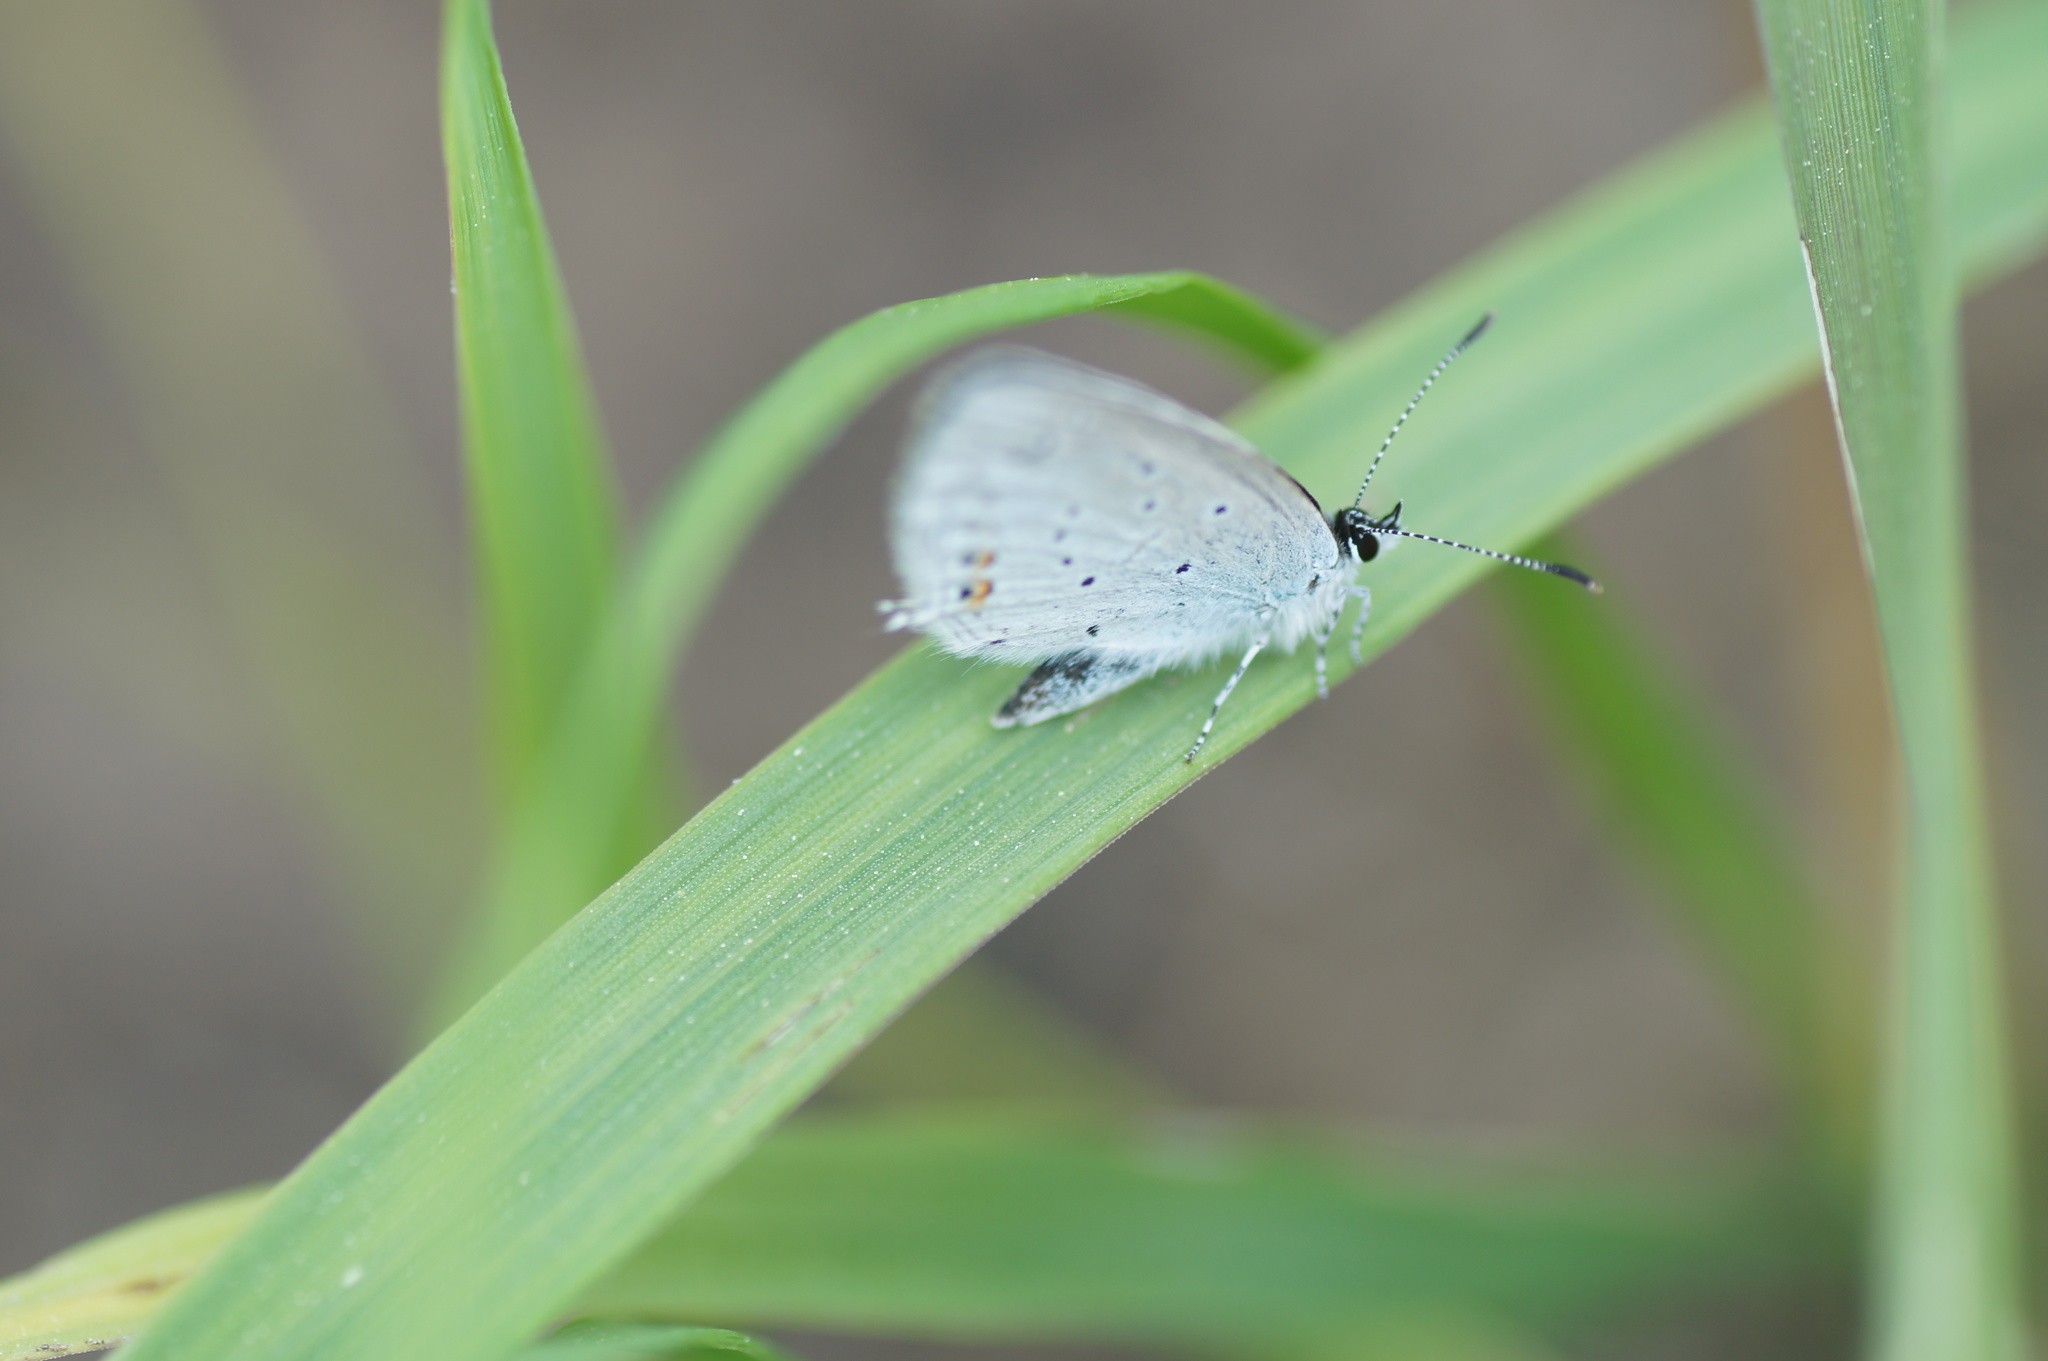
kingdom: Animalia
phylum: Arthropoda
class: Insecta
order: Lepidoptera
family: Lycaenidae
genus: Elkalyce
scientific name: Elkalyce argiades
